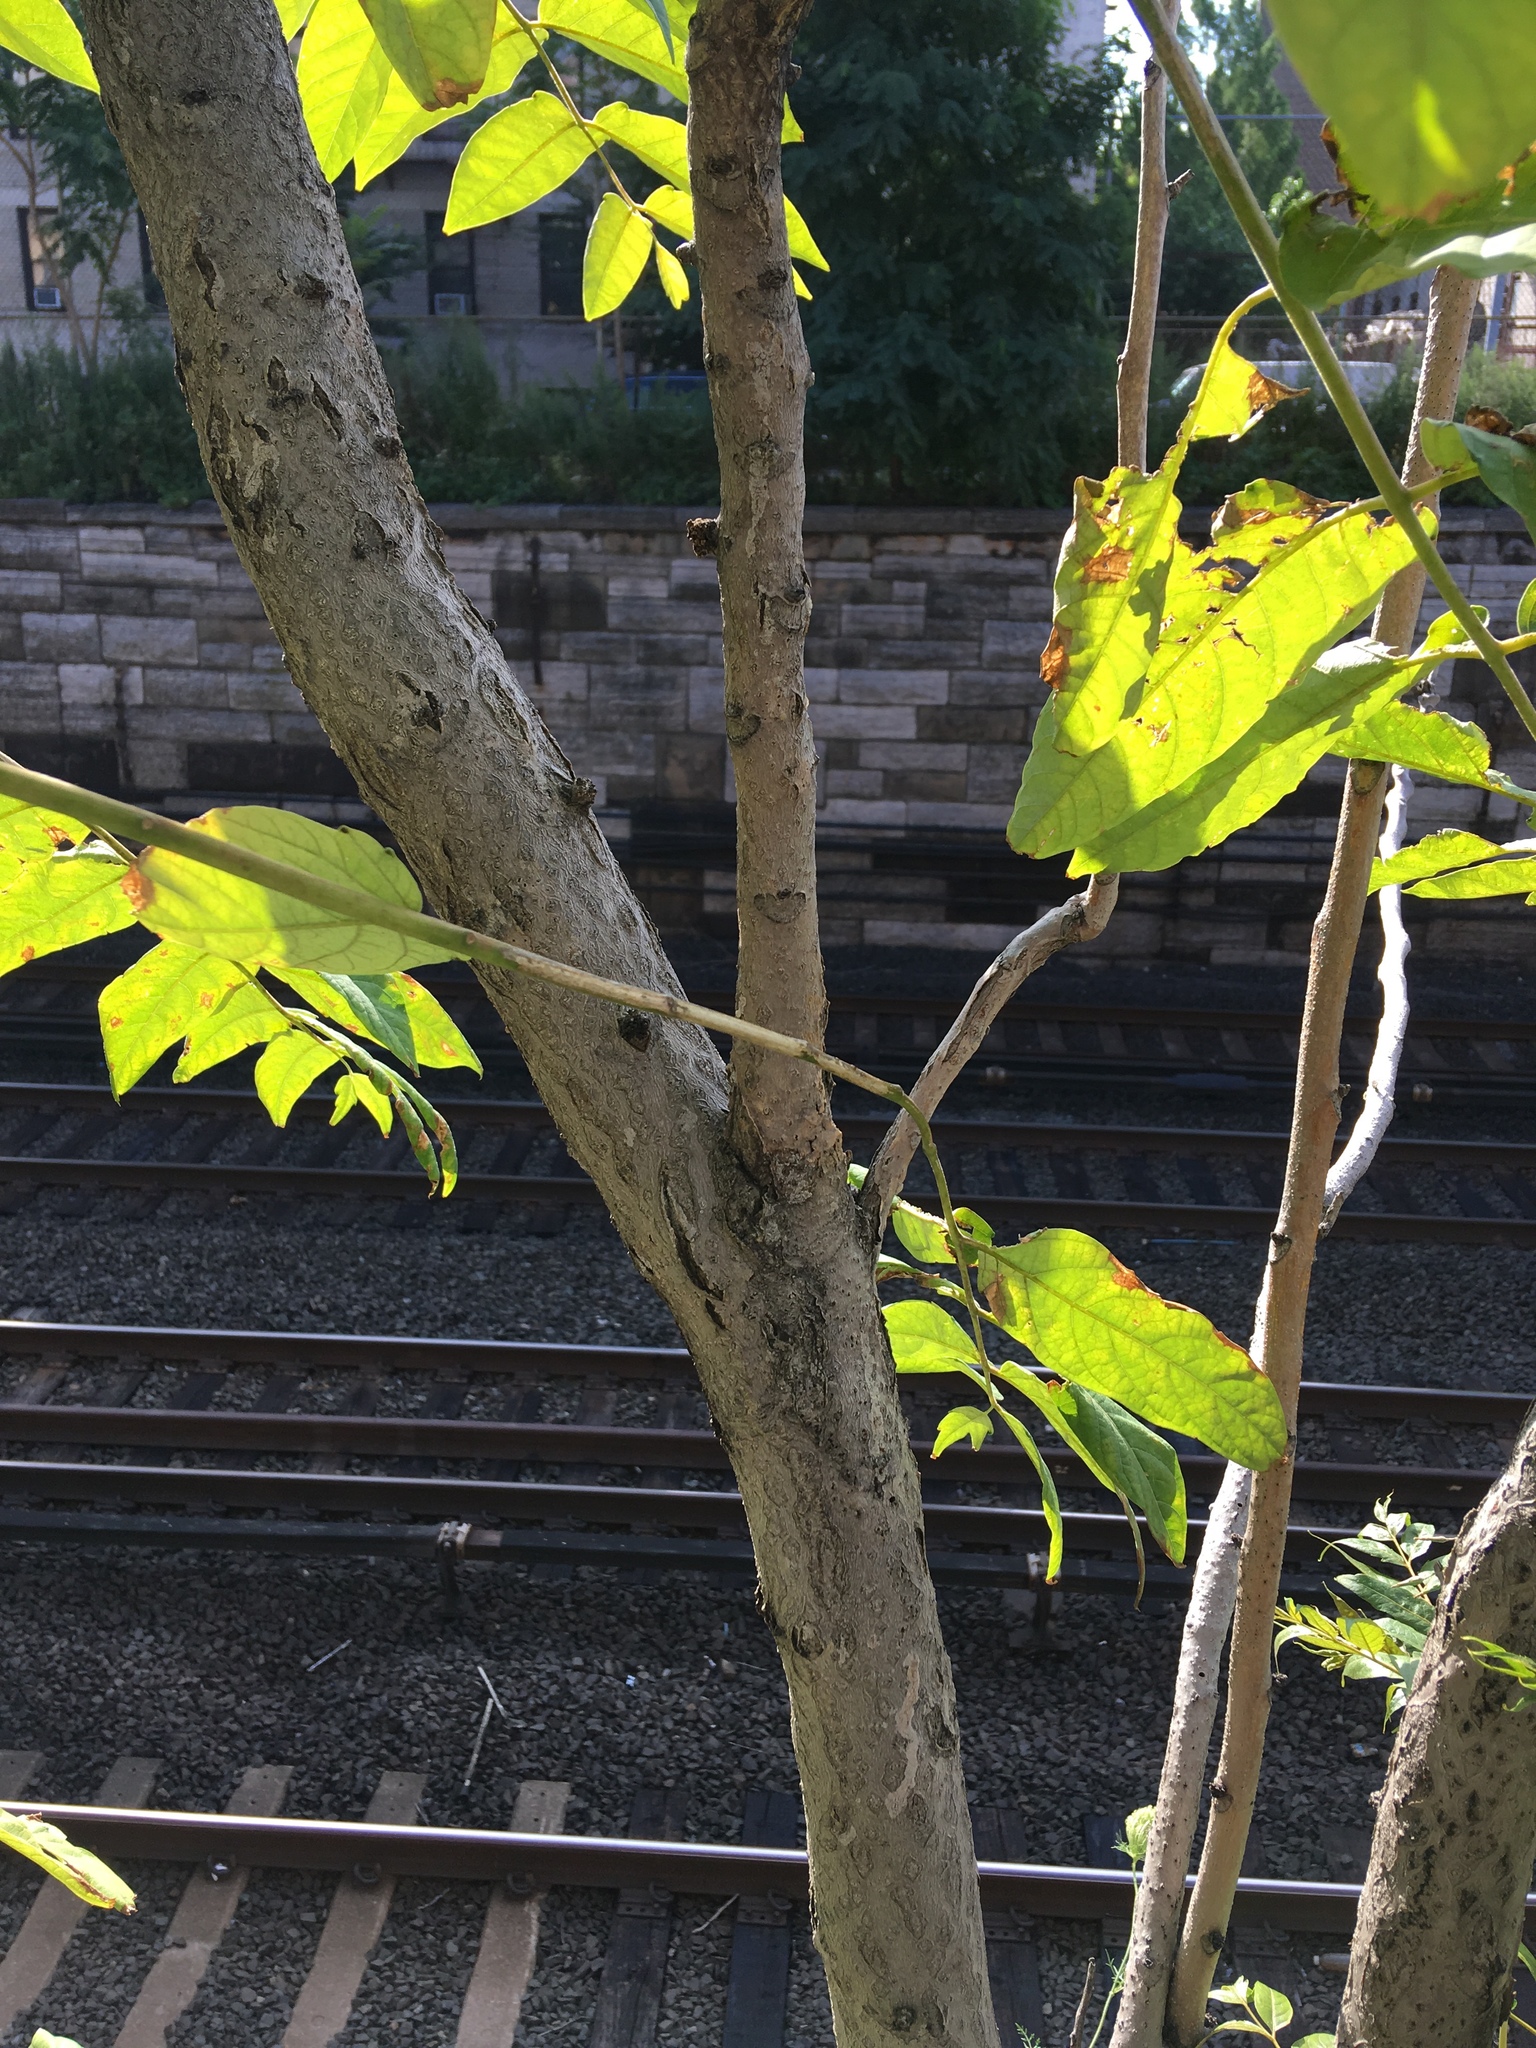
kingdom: Plantae
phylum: Tracheophyta
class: Magnoliopsida
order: Sapindales
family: Simaroubaceae
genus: Ailanthus
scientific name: Ailanthus altissima
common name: Tree-of-heaven
